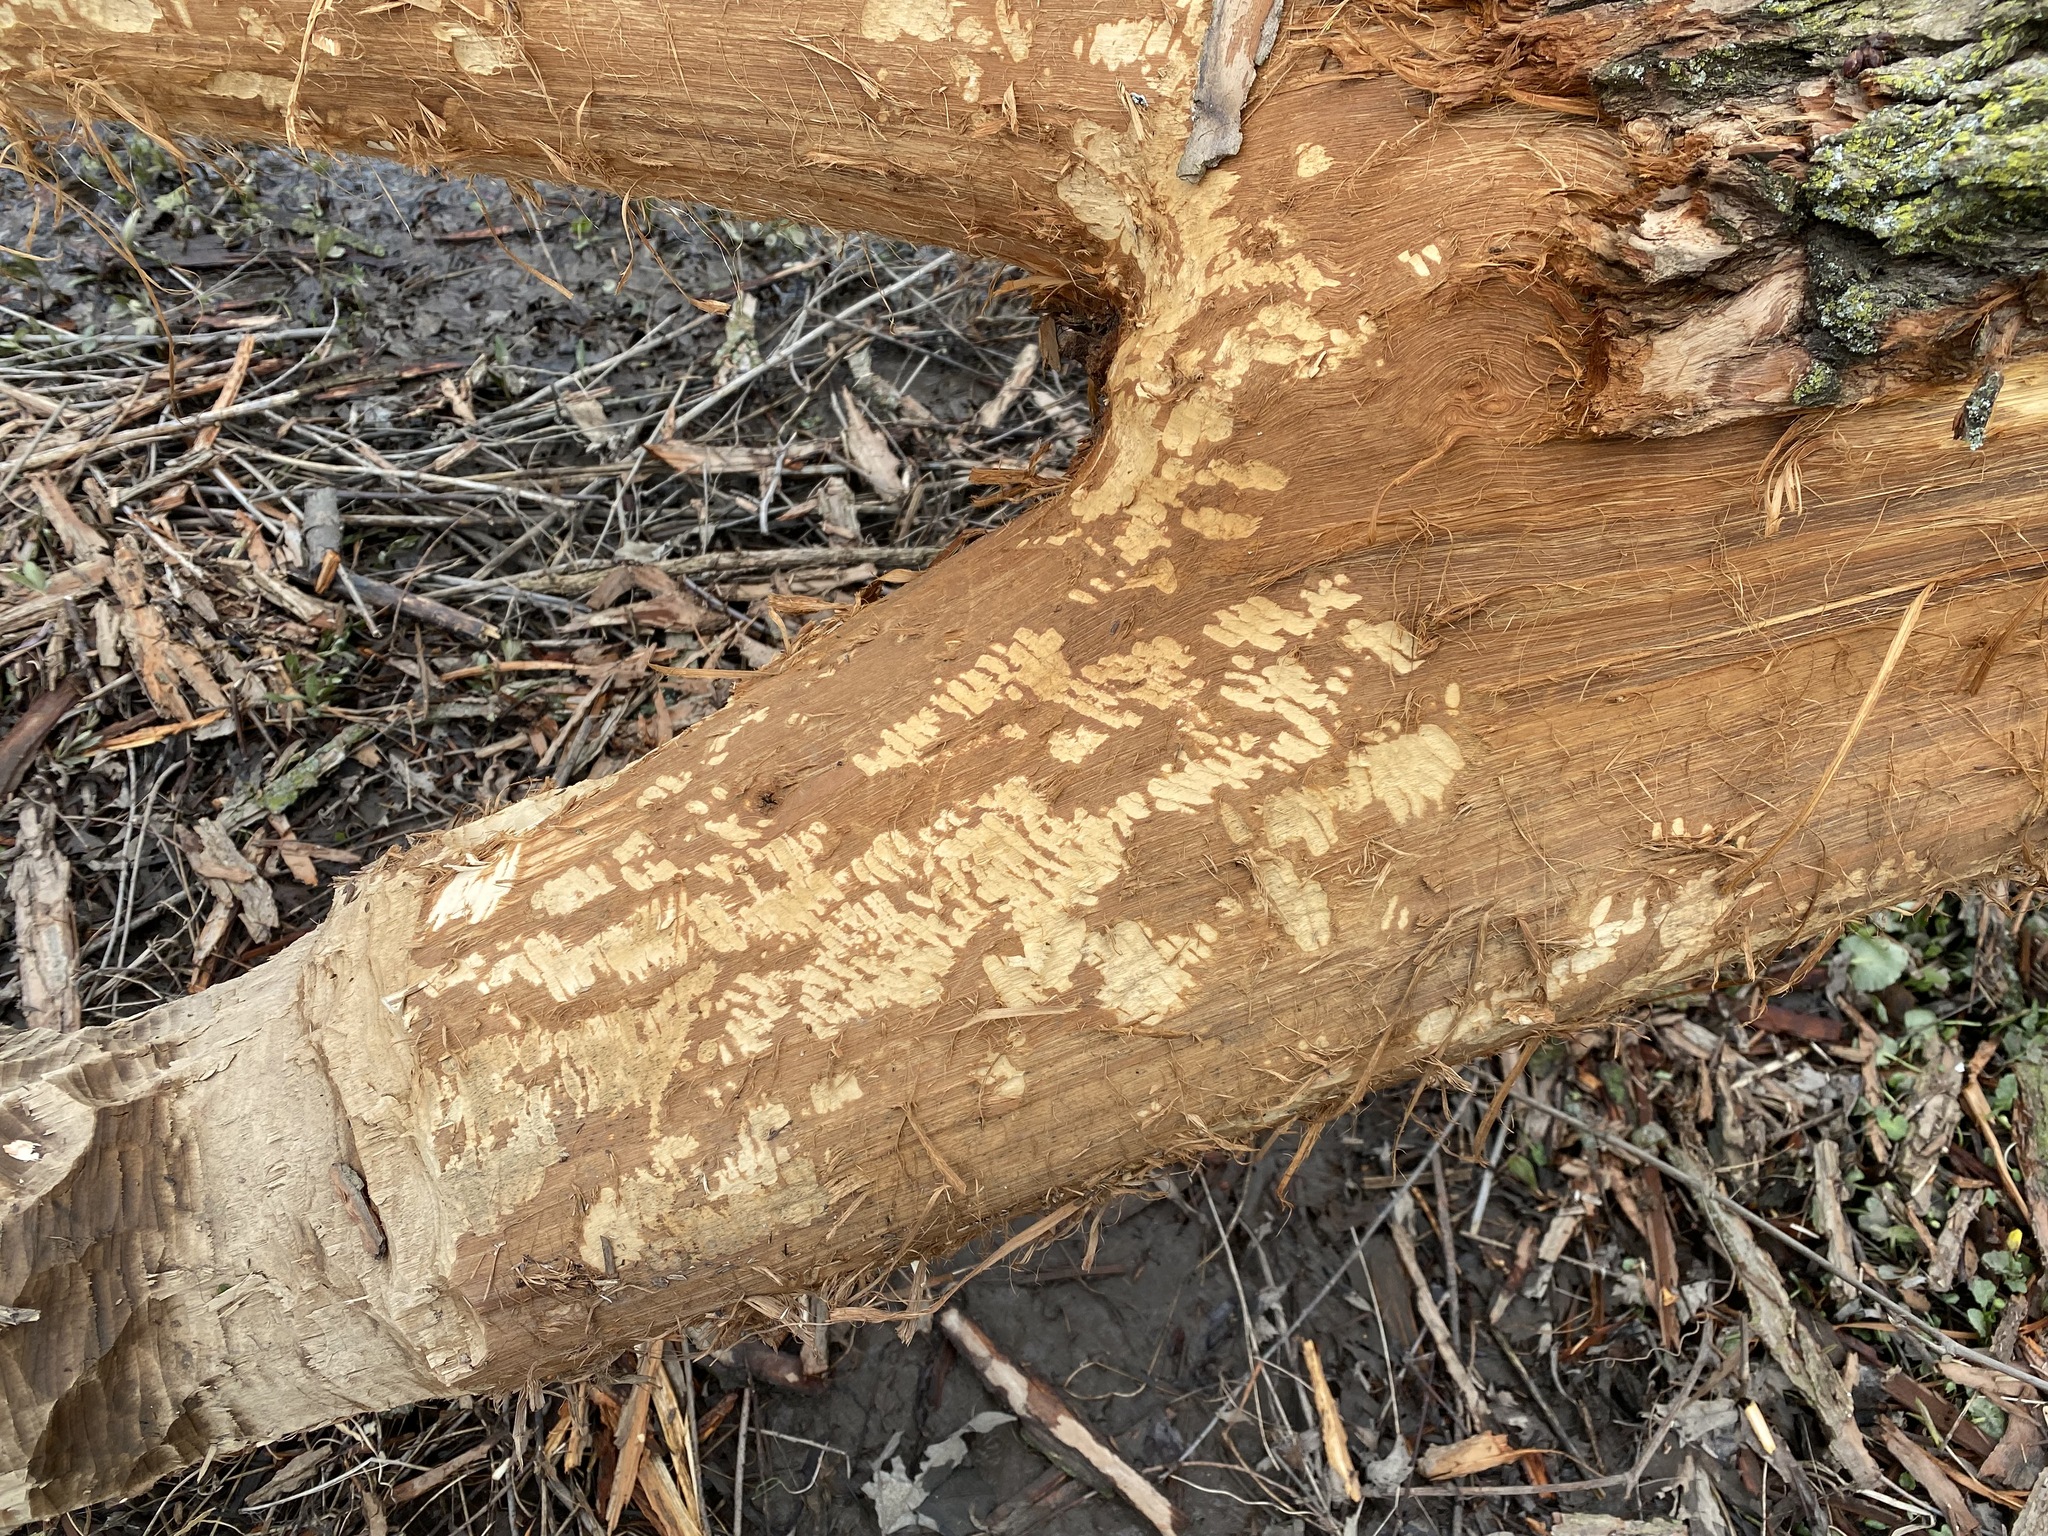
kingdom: Animalia
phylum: Chordata
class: Mammalia
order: Rodentia
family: Castoridae
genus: Castor
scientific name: Castor canadensis
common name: American beaver
